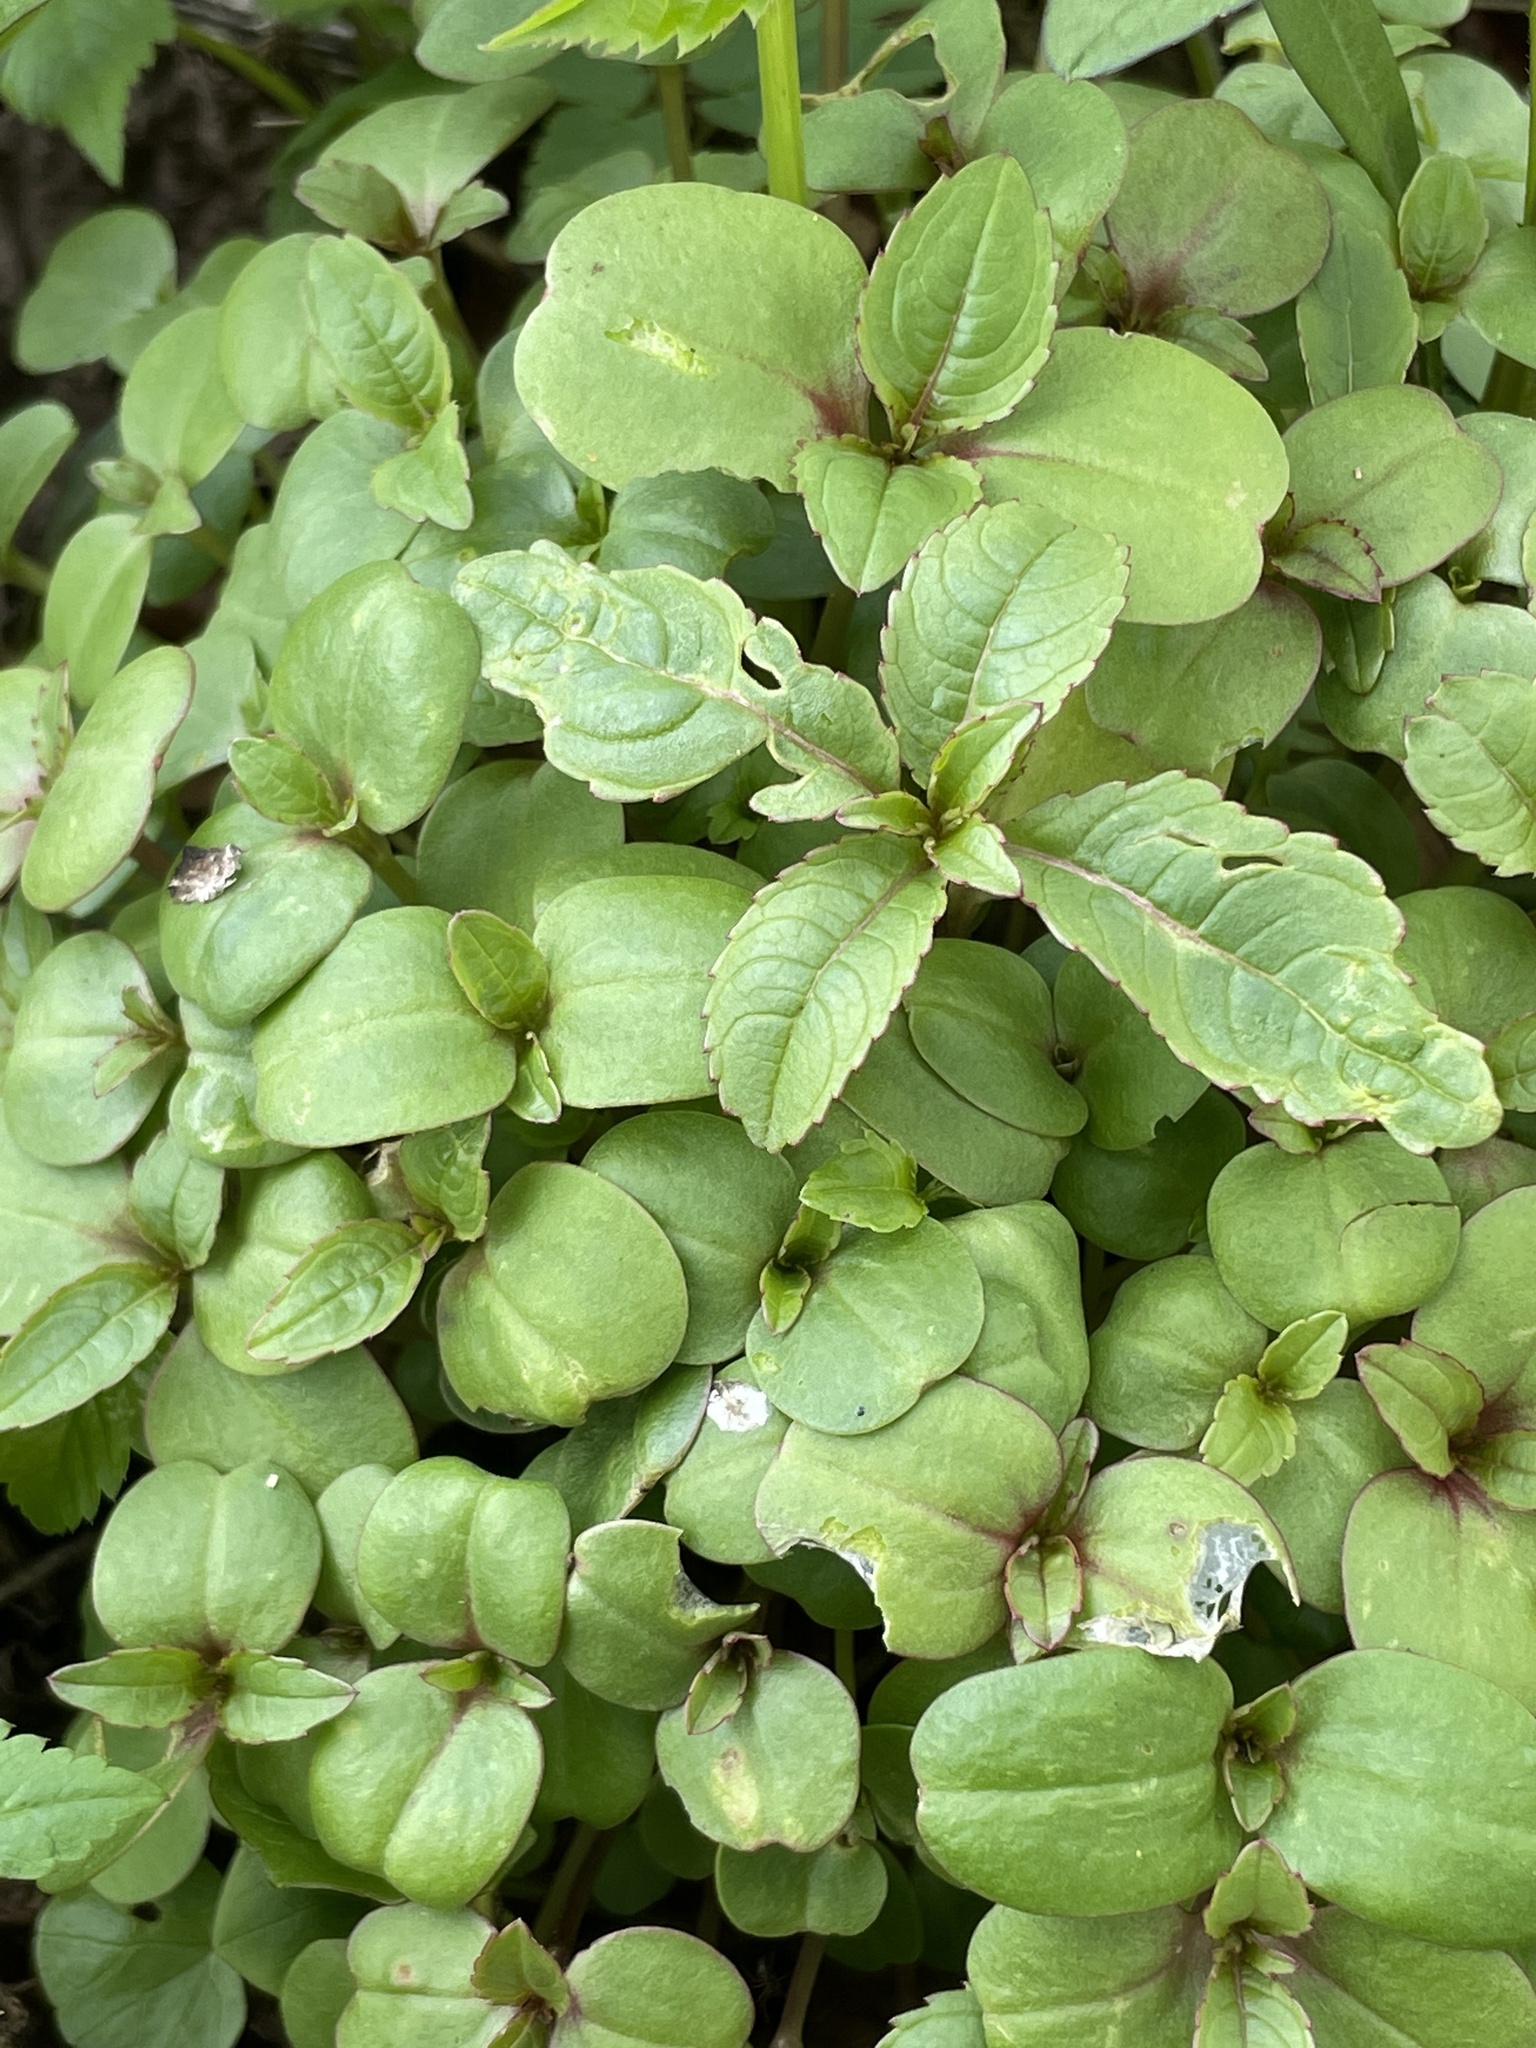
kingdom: Plantae
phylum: Tracheophyta
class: Magnoliopsida
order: Ericales
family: Balsaminaceae
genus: Impatiens
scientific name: Impatiens glandulifera
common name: Himalayan balsam
